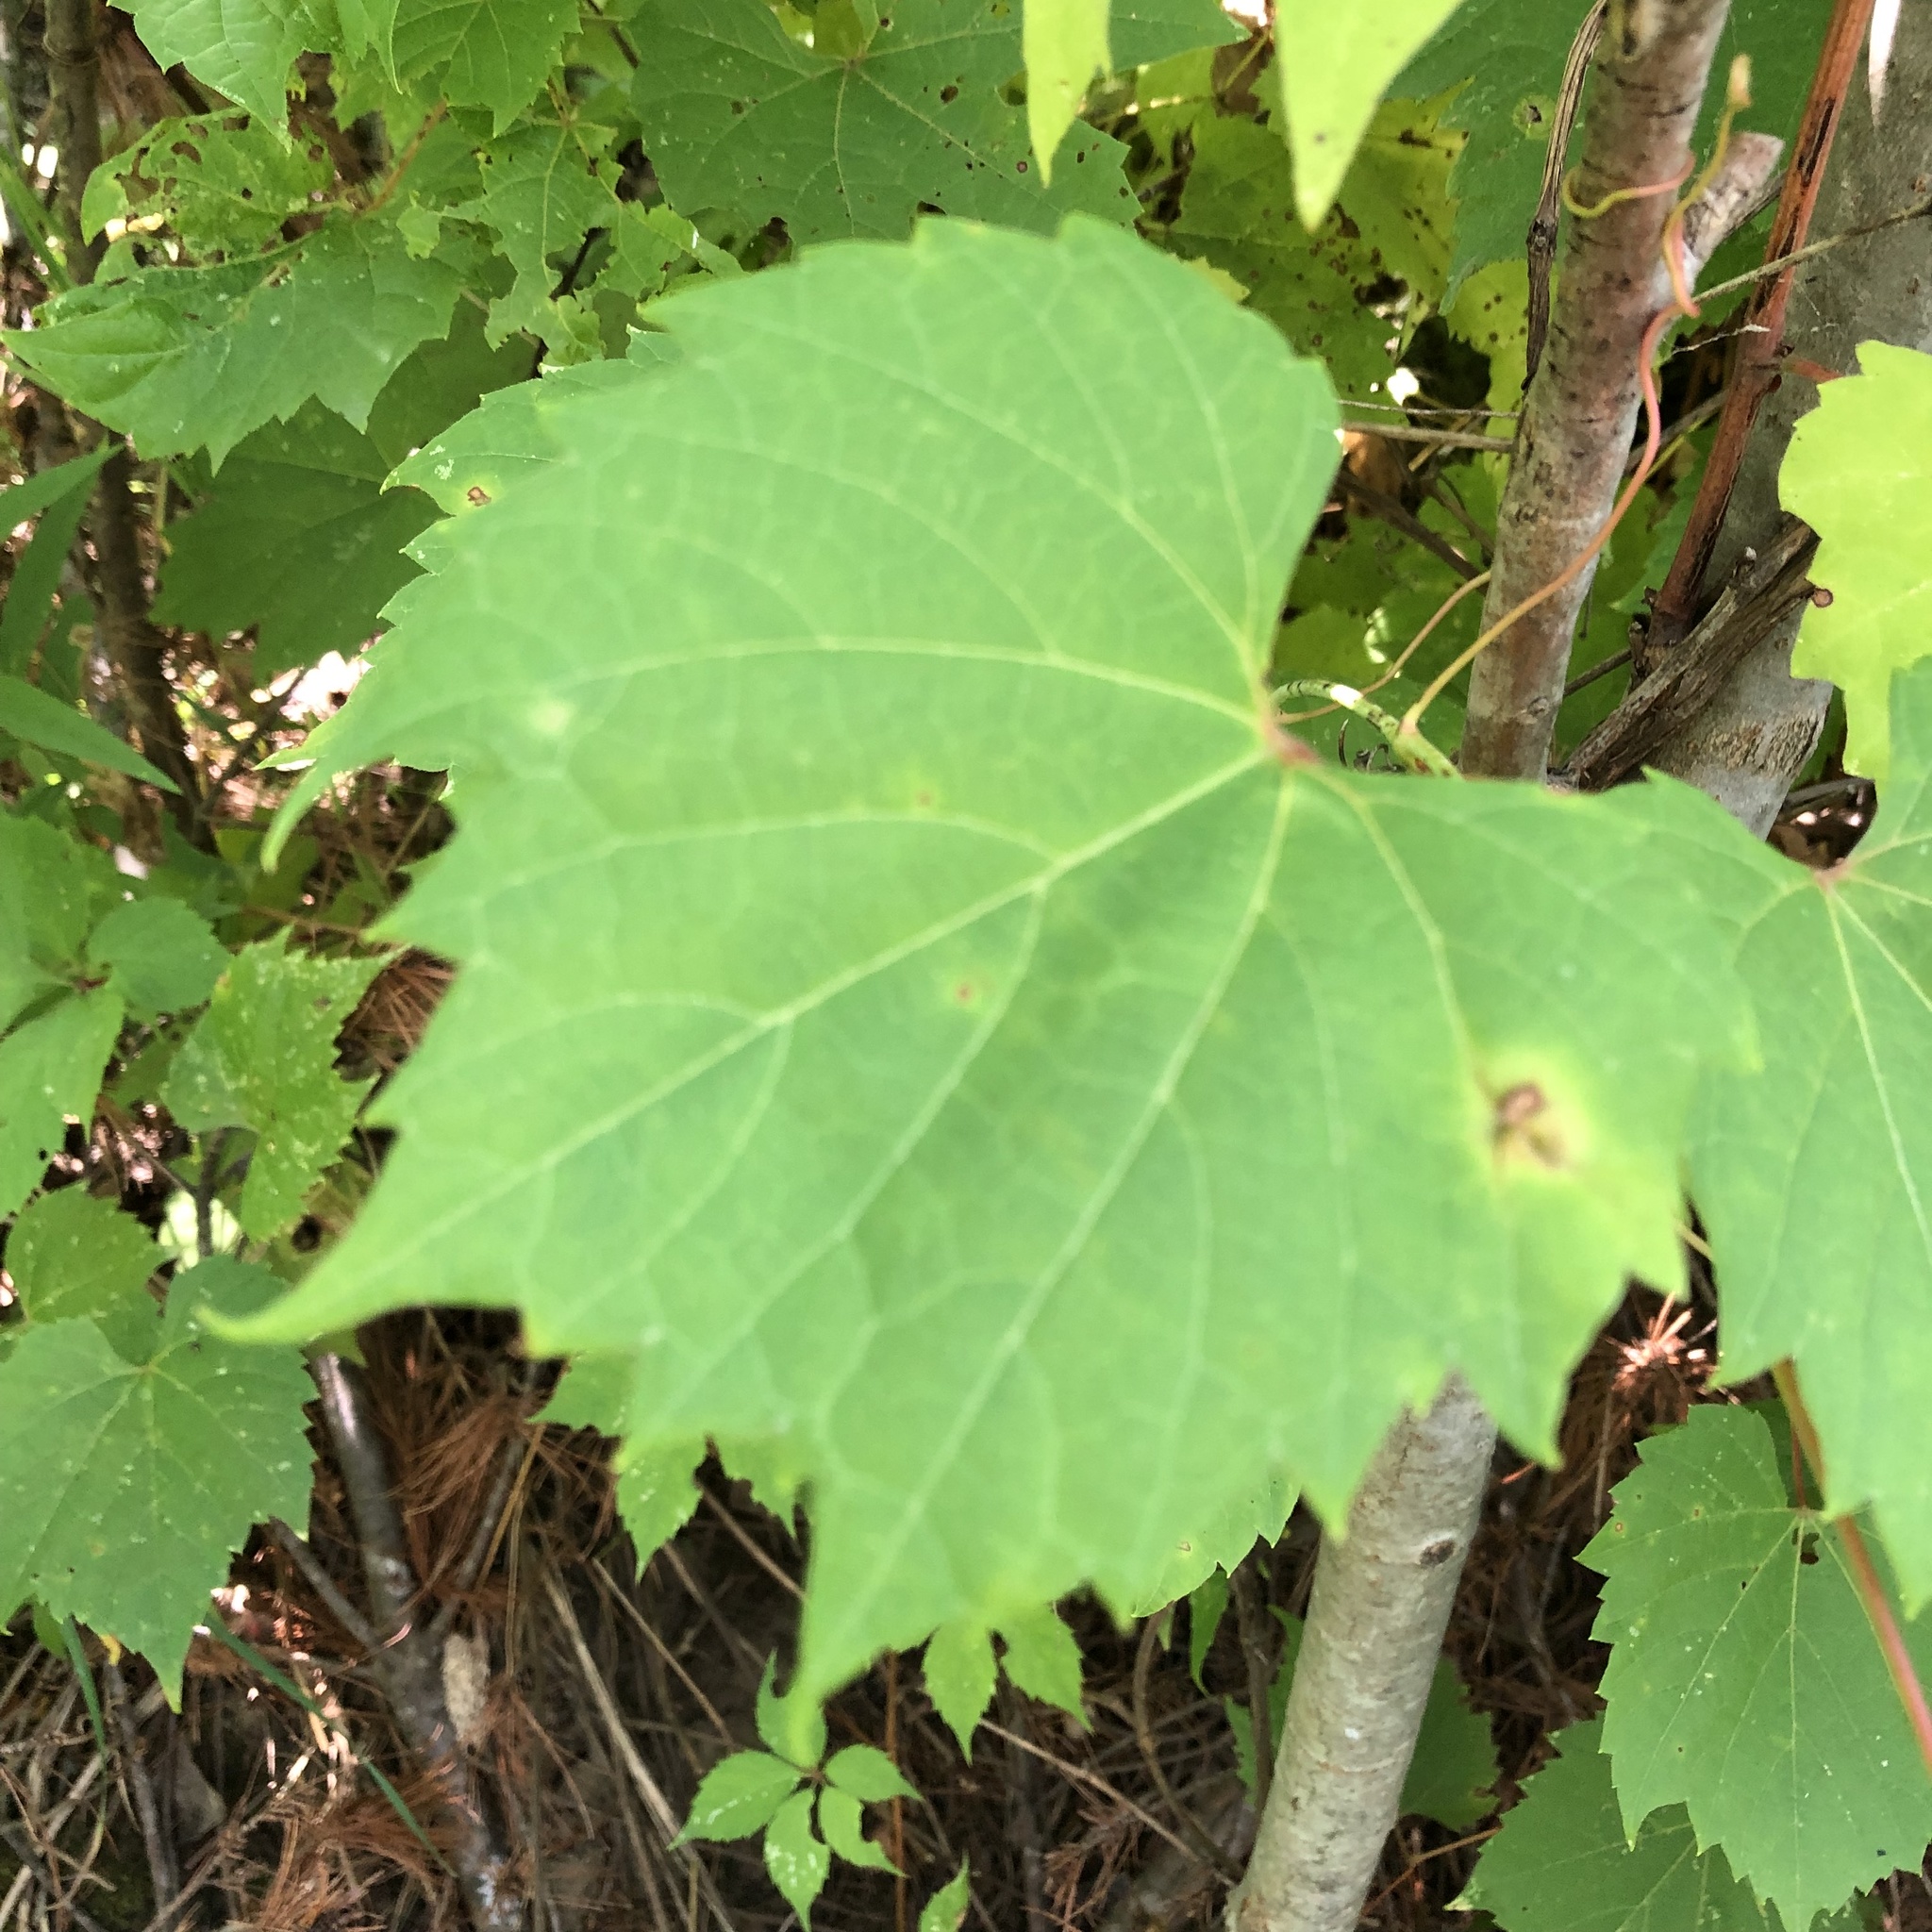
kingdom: Plantae
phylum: Tracheophyta
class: Magnoliopsida
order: Vitales
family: Vitaceae
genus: Vitis
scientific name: Vitis riparia
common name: Frost grape
